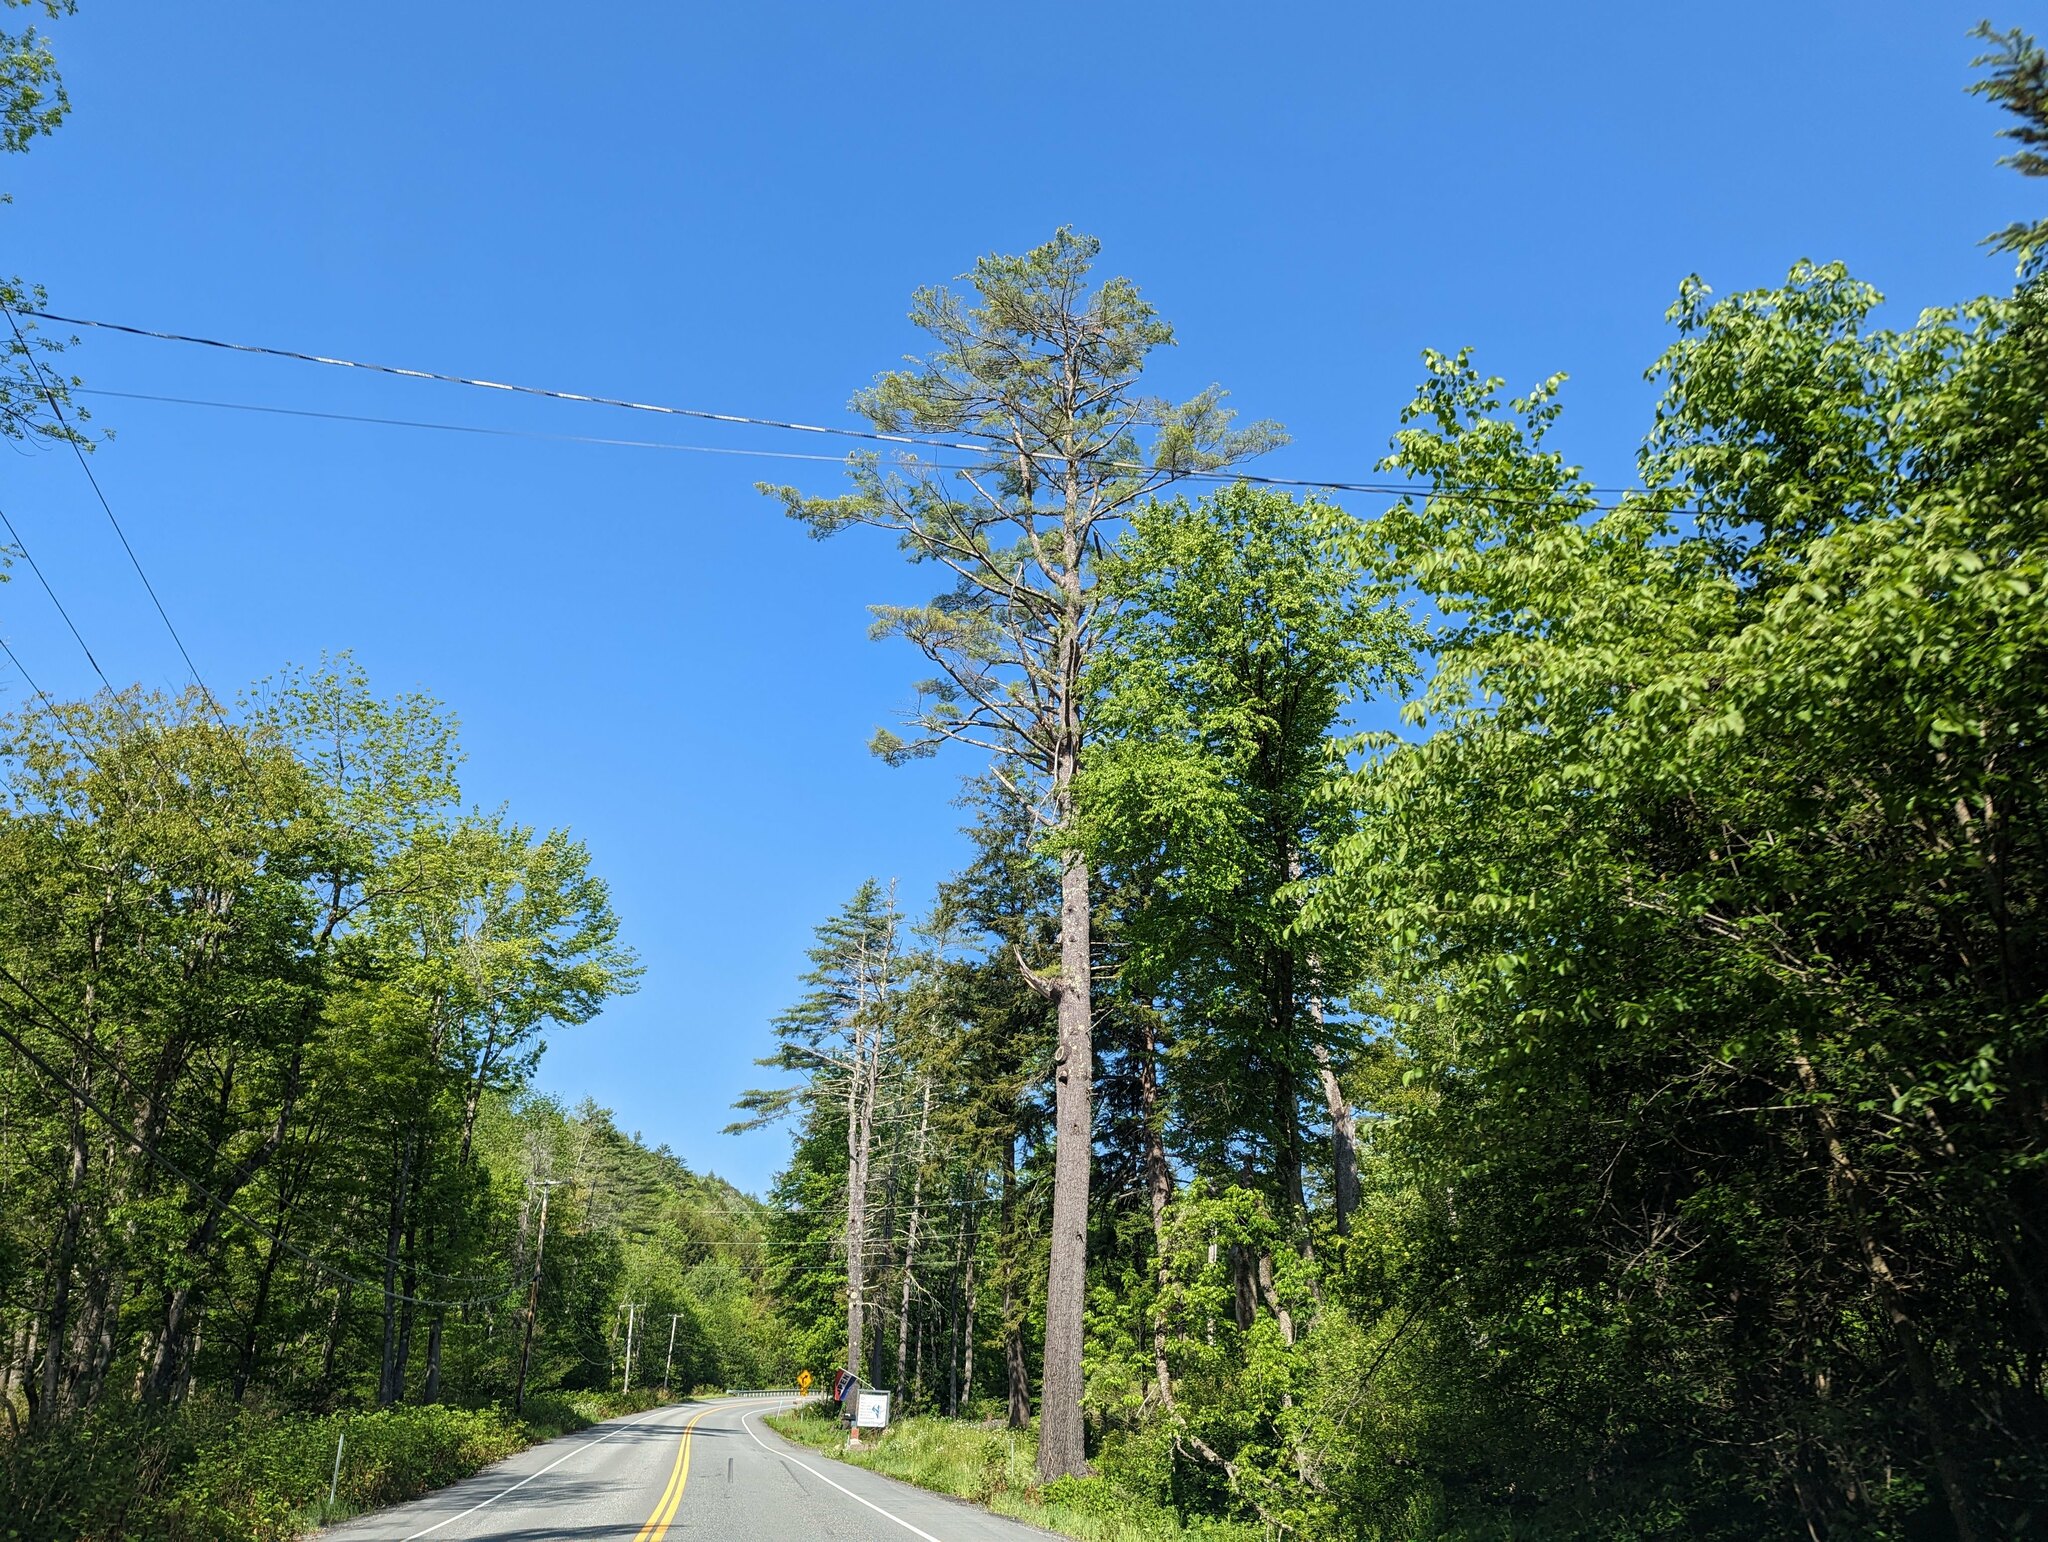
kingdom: Plantae
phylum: Tracheophyta
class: Pinopsida
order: Pinales
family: Pinaceae
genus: Pinus
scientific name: Pinus strobus
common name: Weymouth pine
